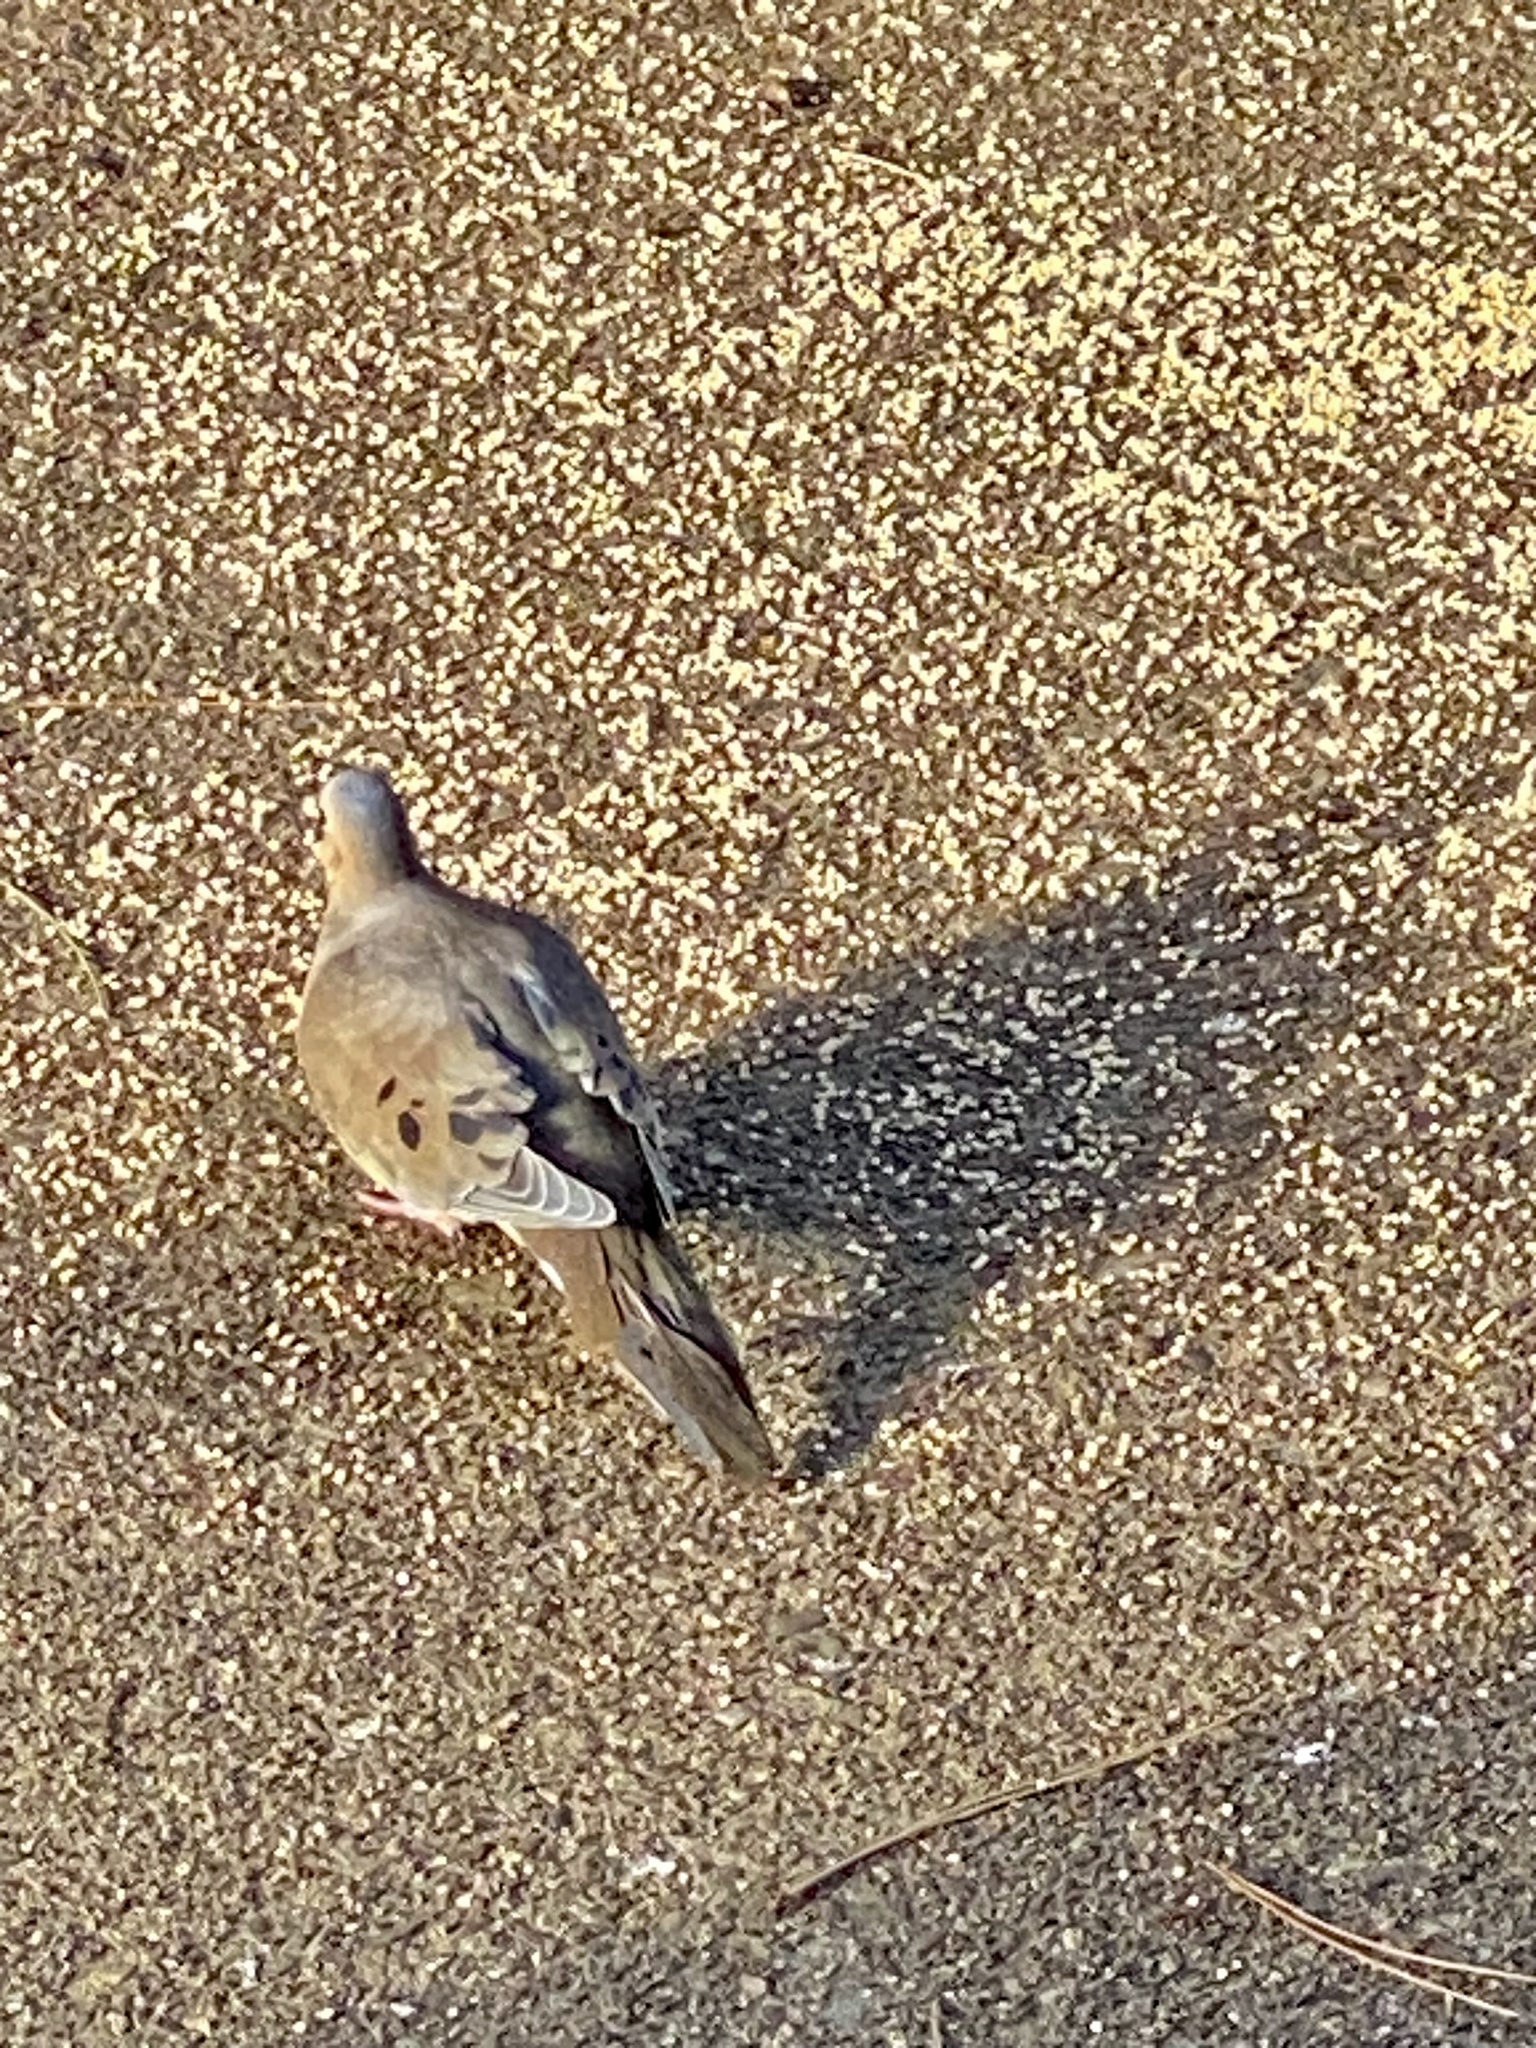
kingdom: Animalia
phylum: Chordata
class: Aves
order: Columbiformes
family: Columbidae
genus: Zenaida
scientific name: Zenaida macroura
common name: Mourning dove
